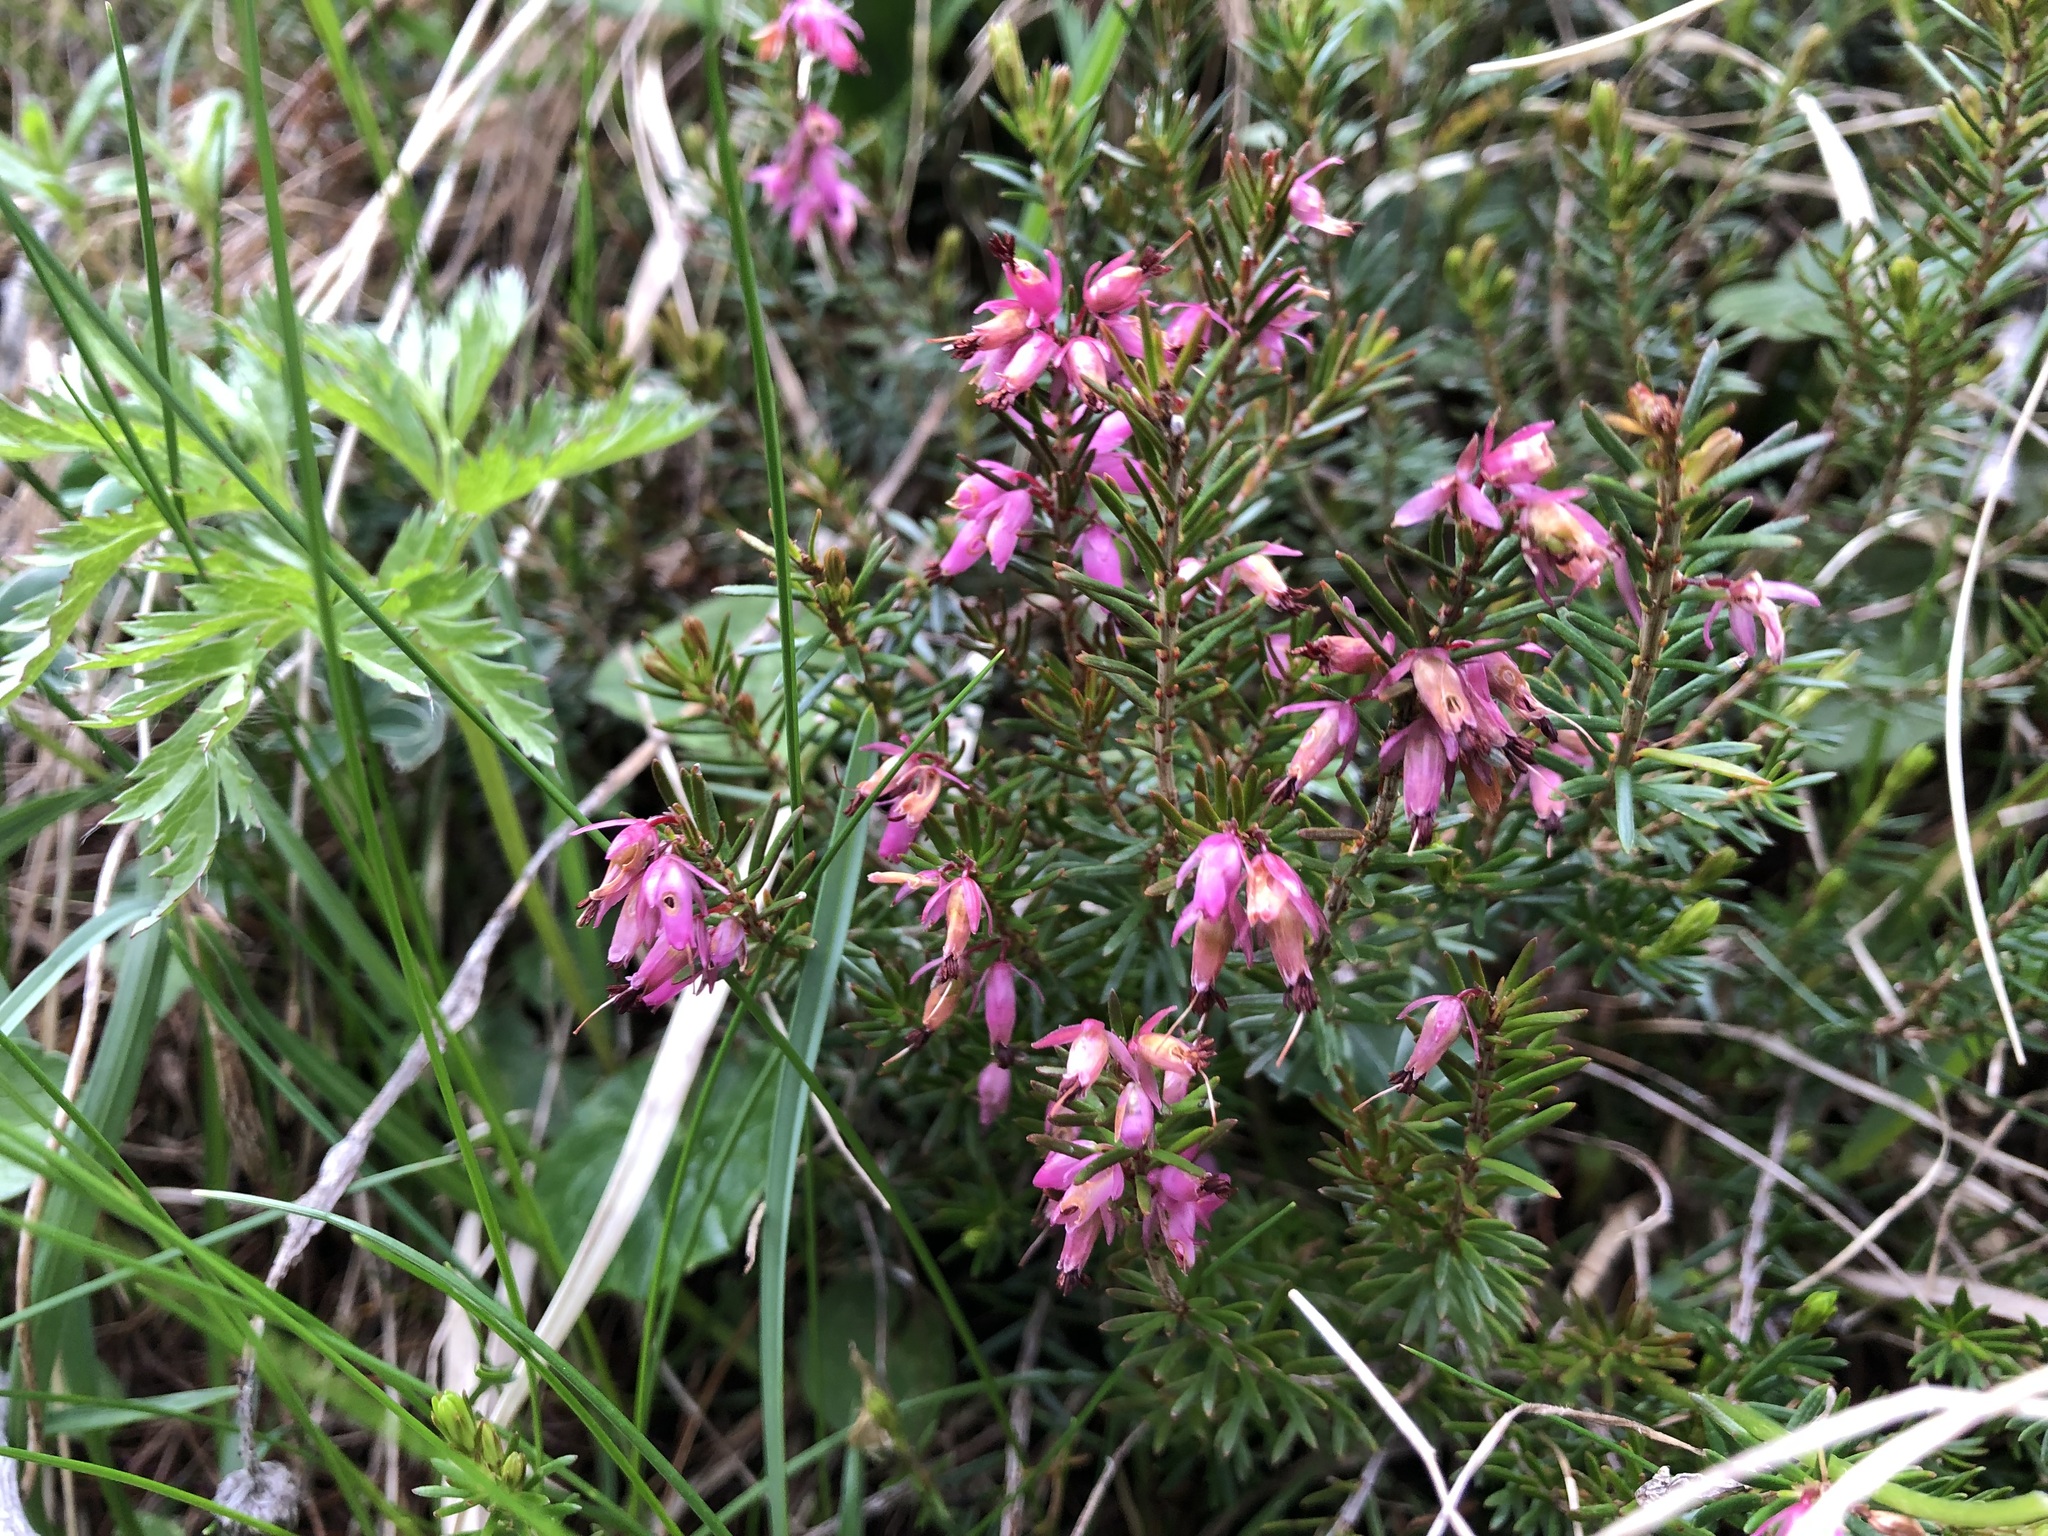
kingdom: Plantae
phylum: Tracheophyta
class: Magnoliopsida
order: Ericales
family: Ericaceae
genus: Erica
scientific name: Erica carnea
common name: Winter heath
